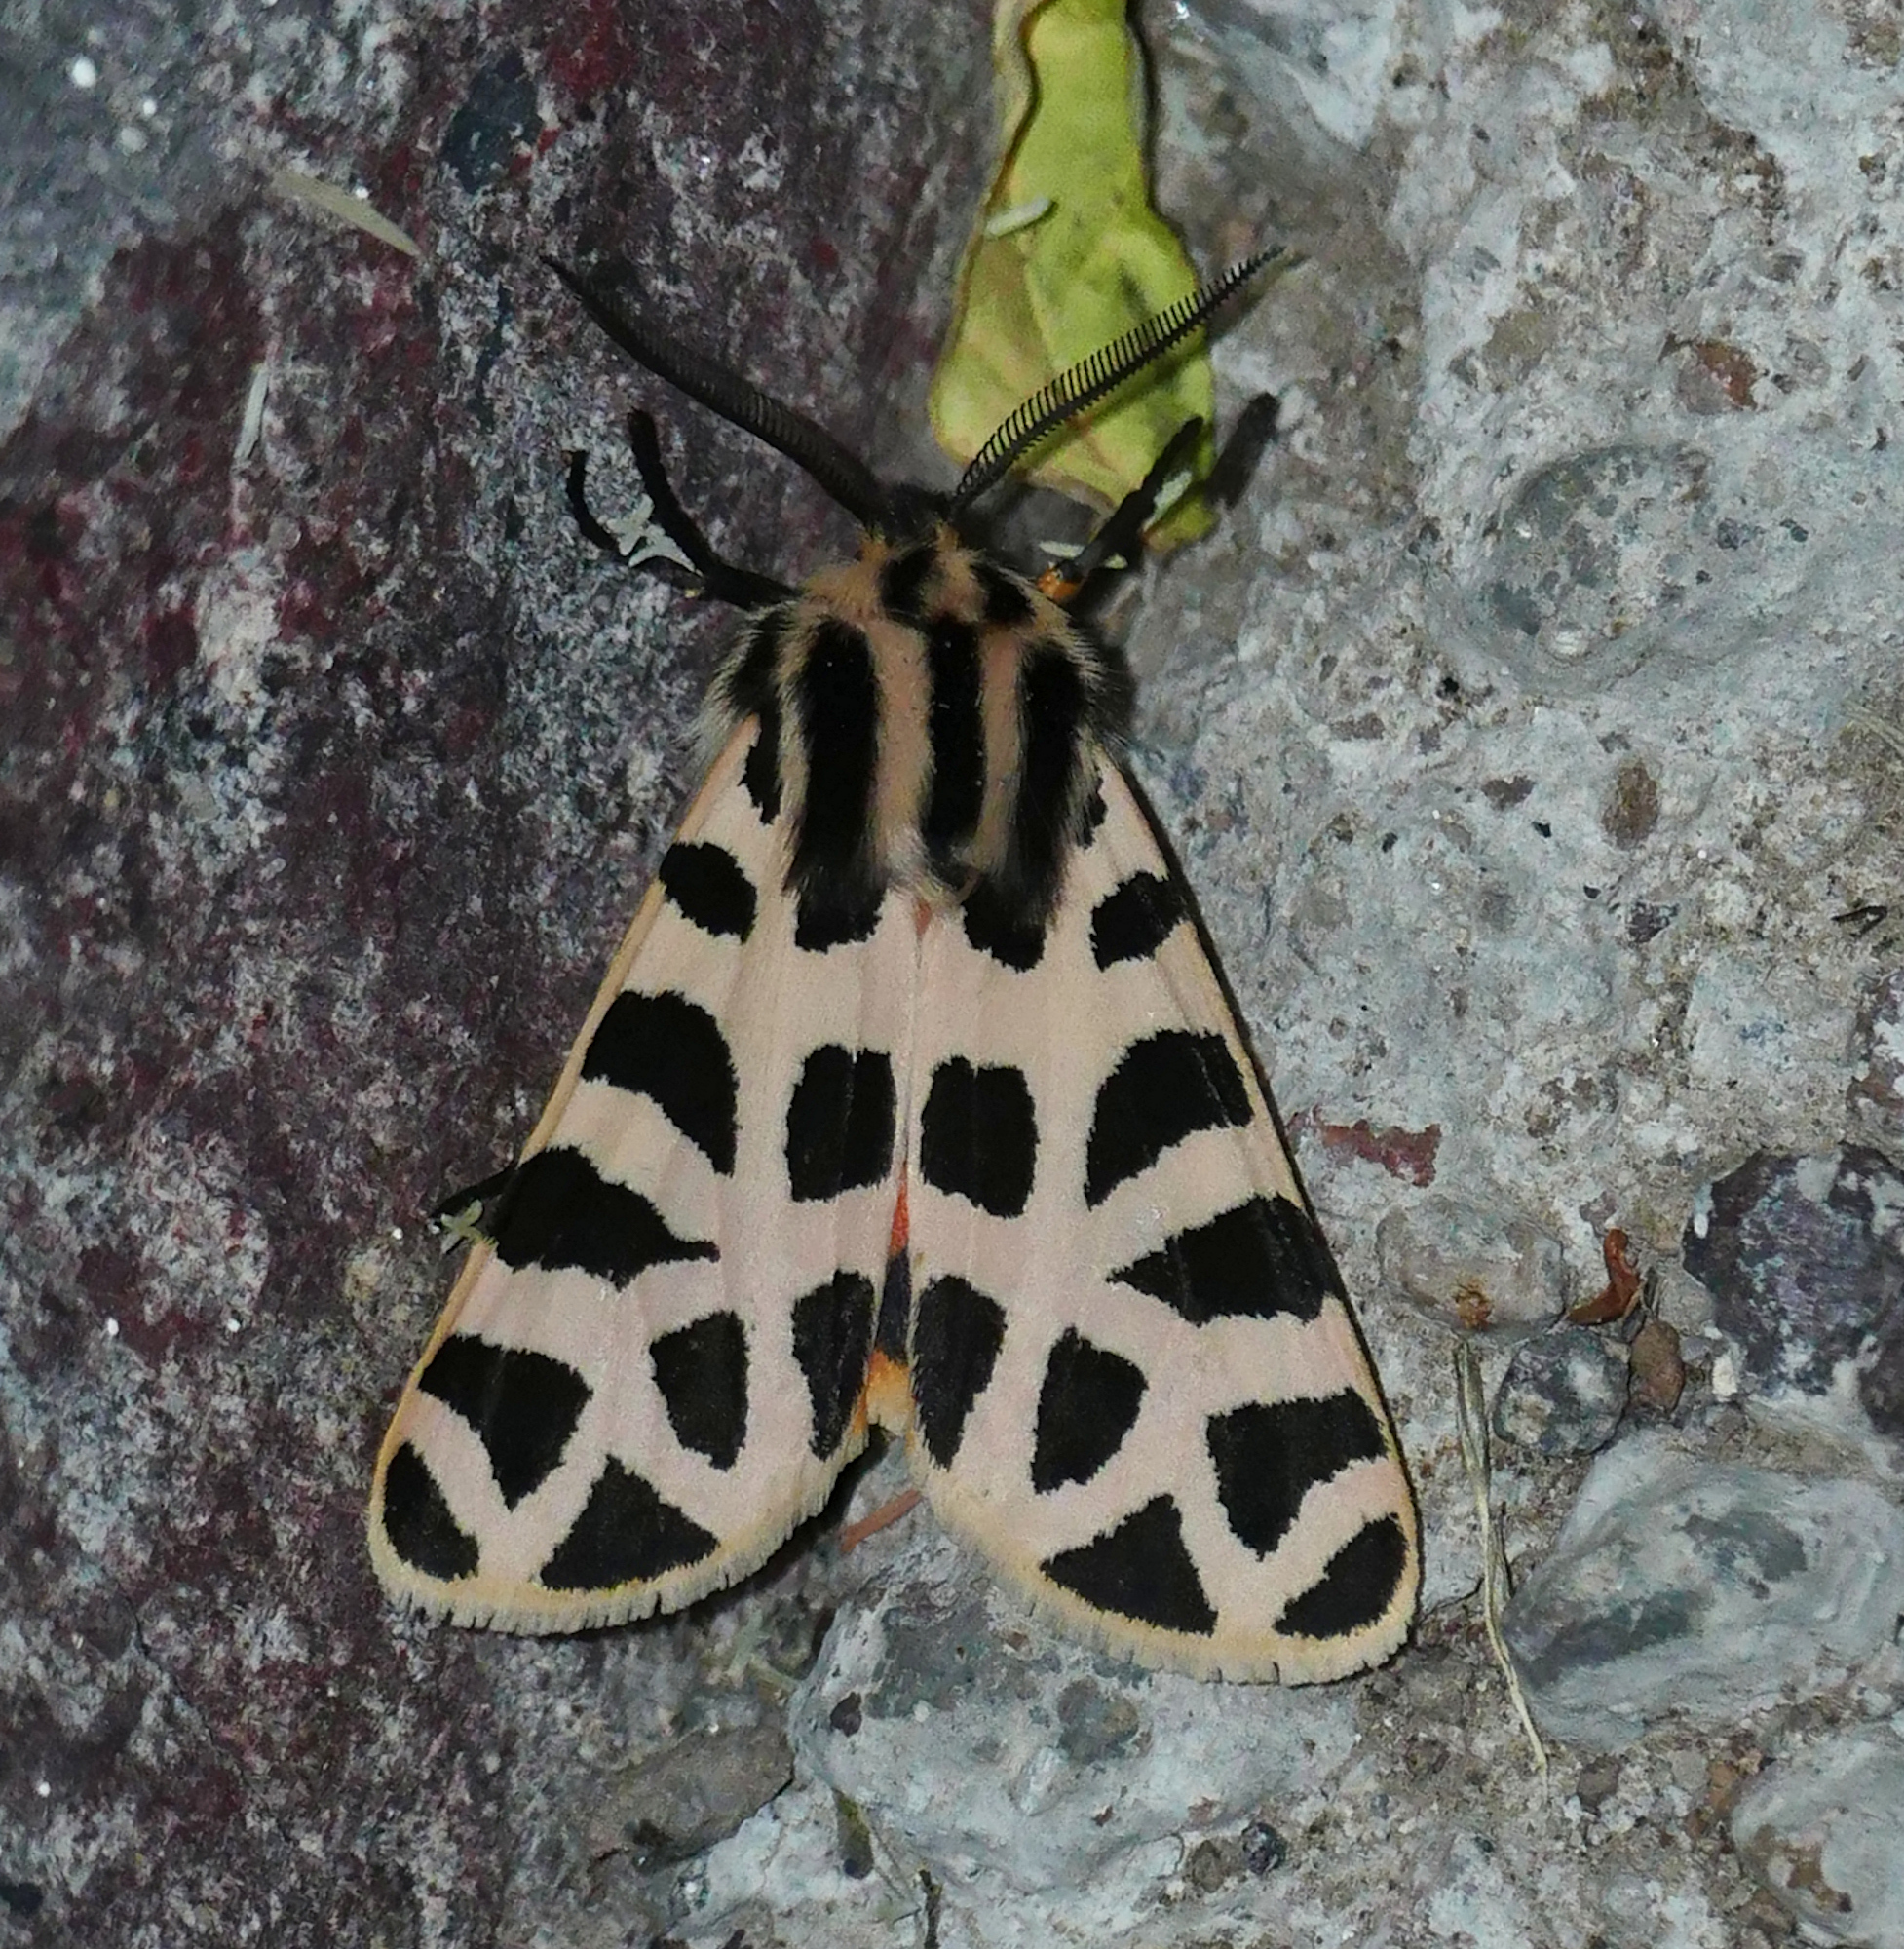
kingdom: Animalia
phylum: Arthropoda
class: Insecta
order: Lepidoptera
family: Erebidae
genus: Apantesis
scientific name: Apantesis incorrupta
